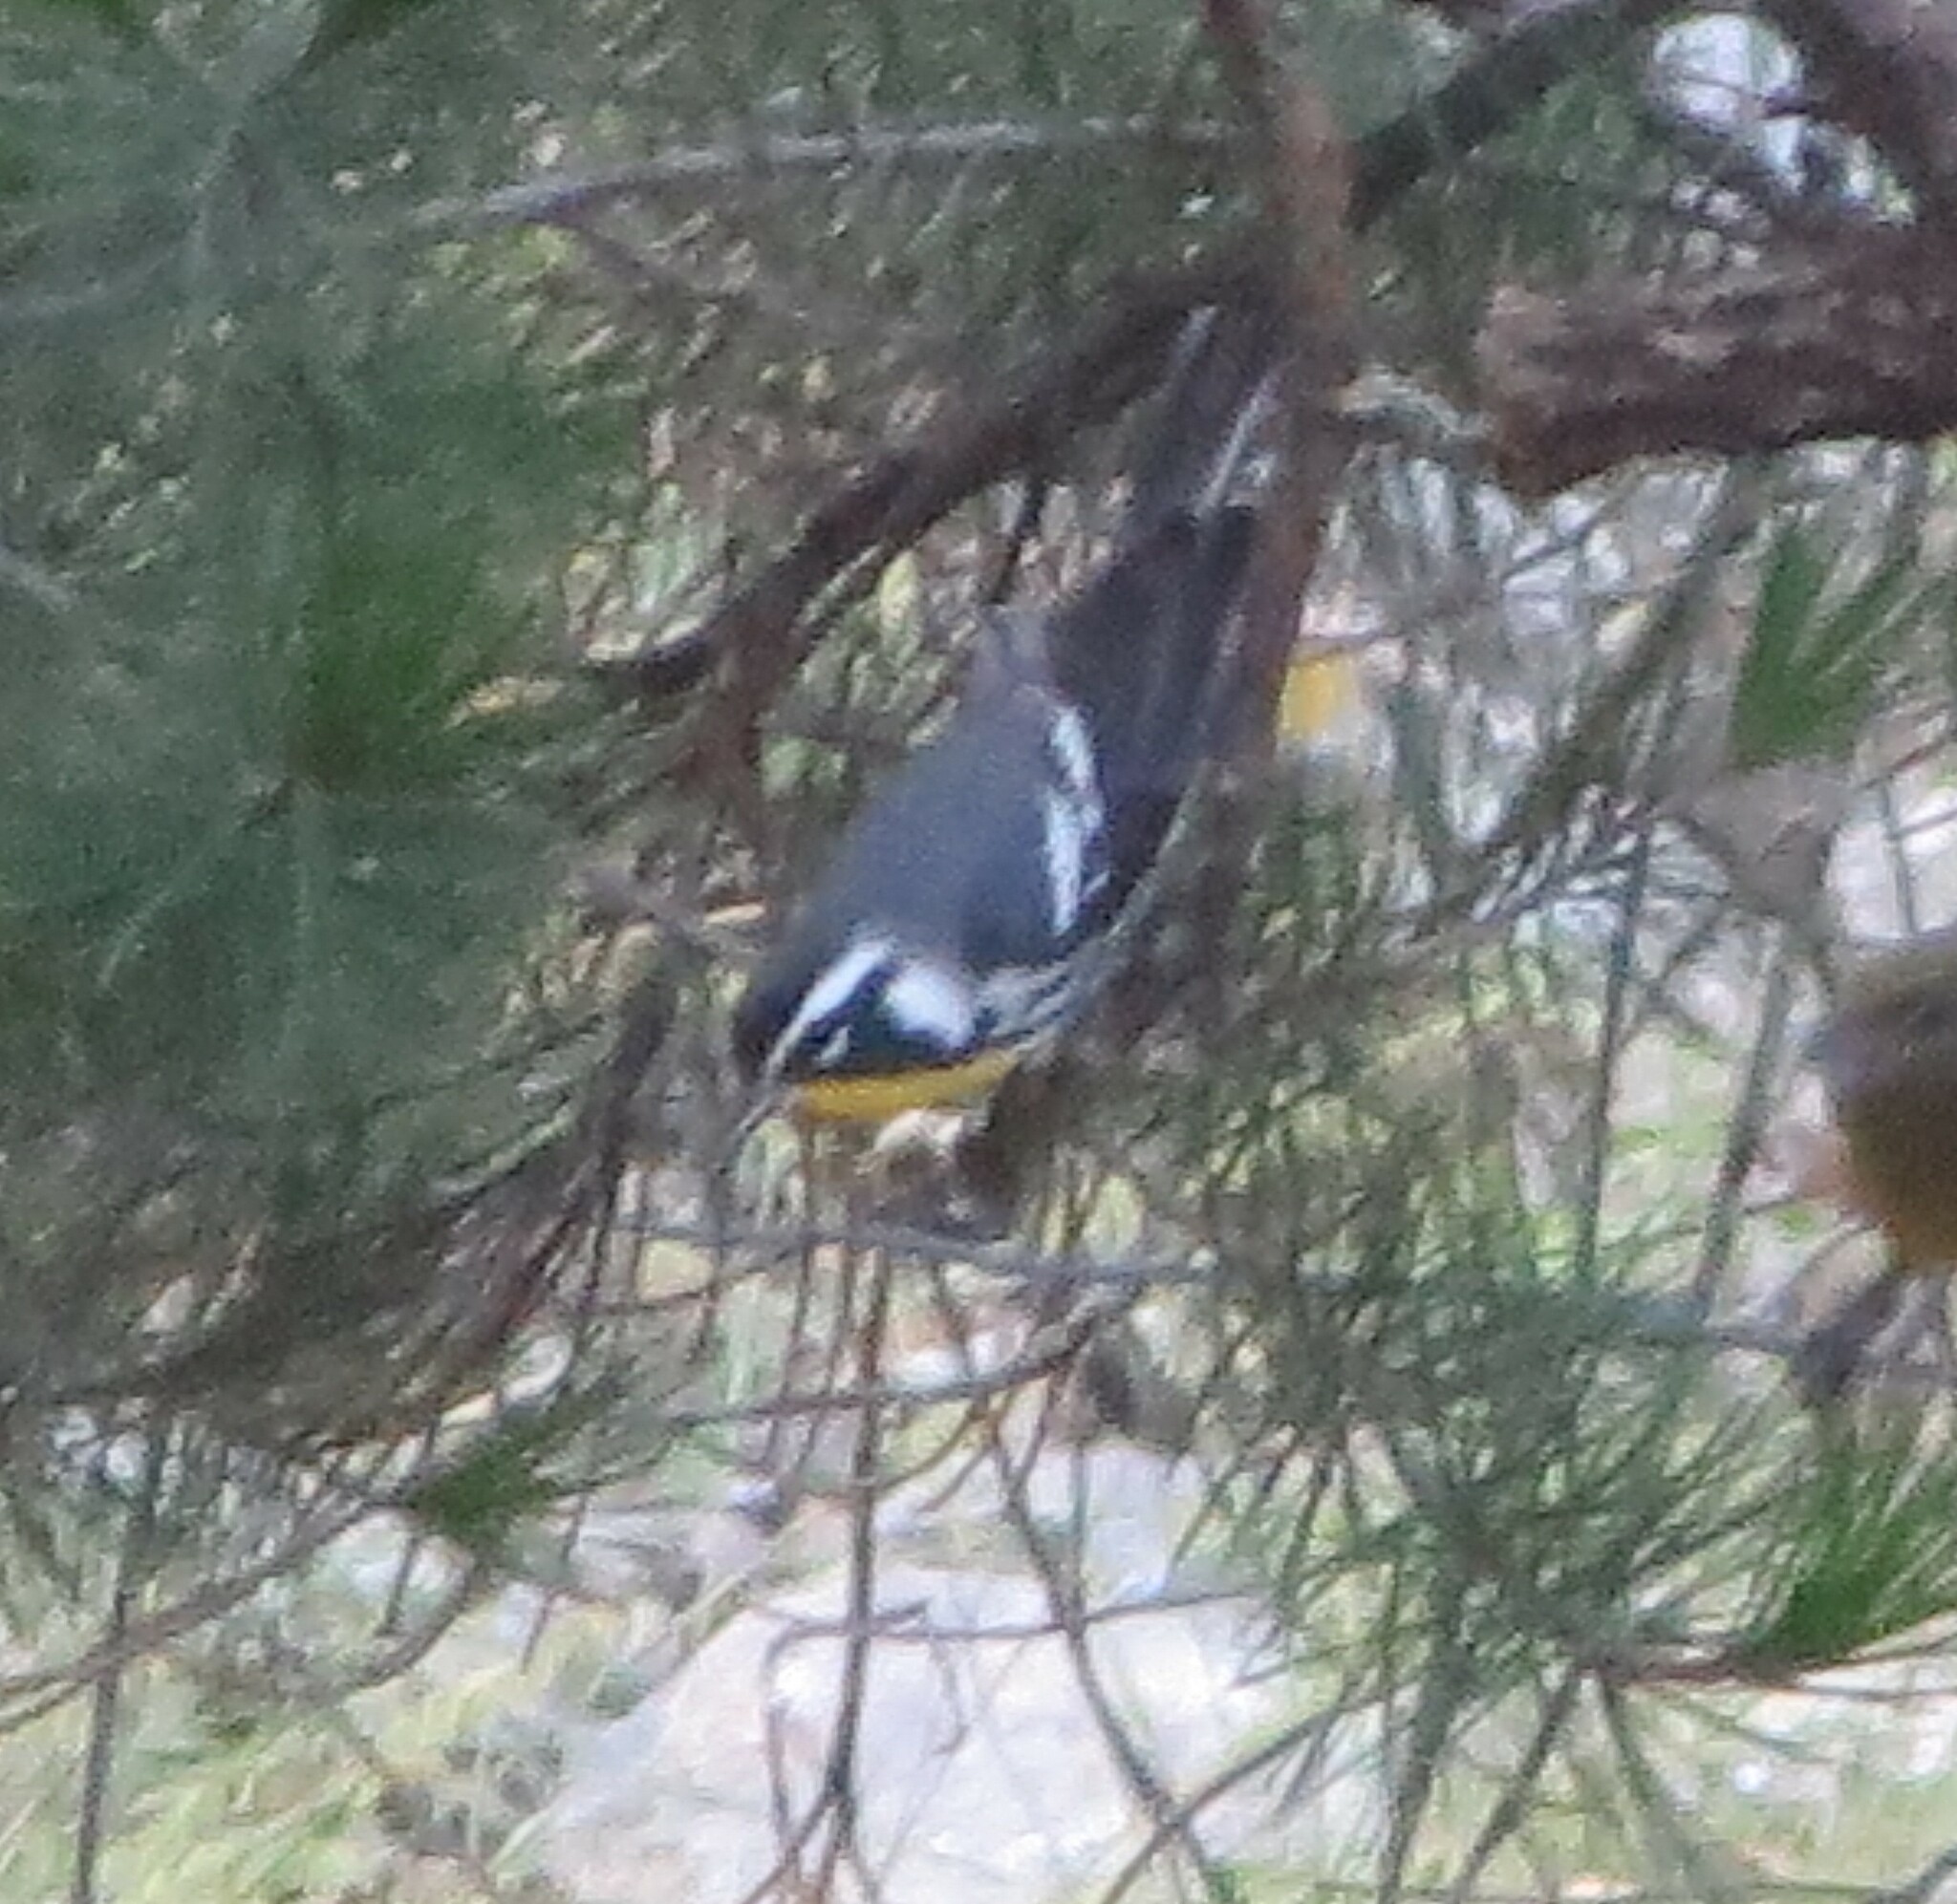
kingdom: Animalia
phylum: Chordata
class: Aves
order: Passeriformes
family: Parulidae
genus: Setophaga
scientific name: Setophaga dominica
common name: Yellow-throated warbler
